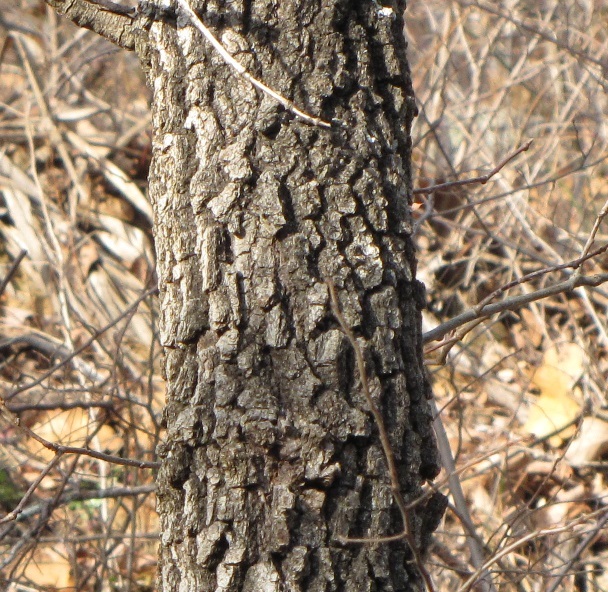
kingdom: Plantae
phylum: Tracheophyta
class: Magnoliopsida
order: Fagales
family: Fagaceae
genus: Quercus
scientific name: Quercus marilandica
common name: Blackjack oak
